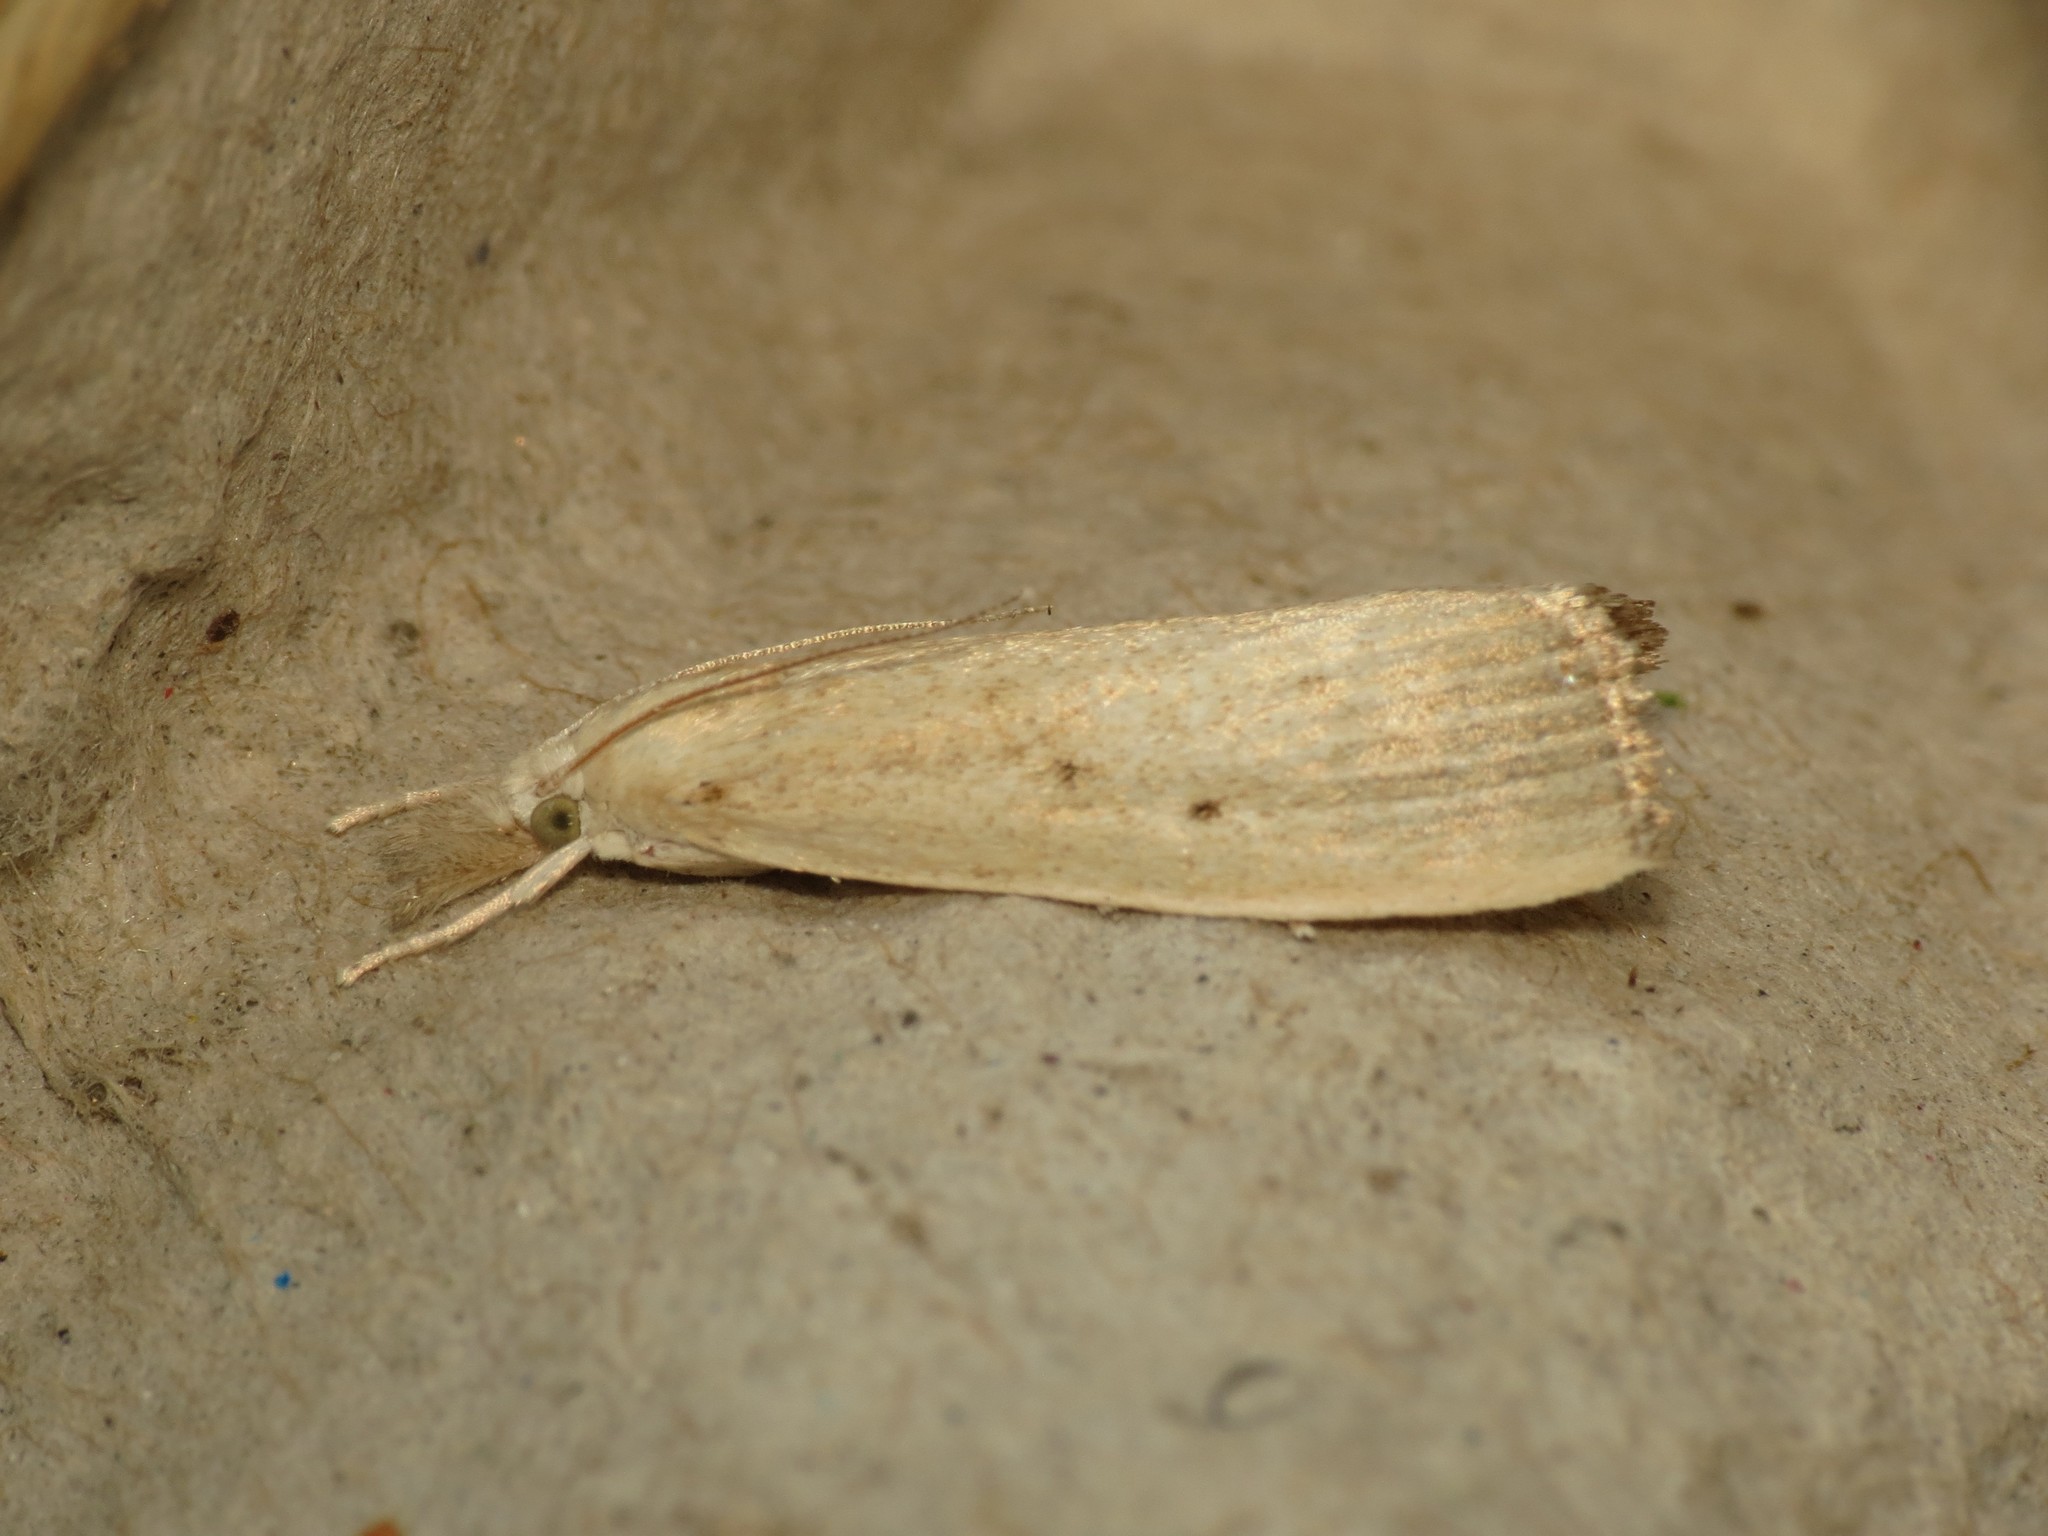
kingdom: Animalia
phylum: Arthropoda
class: Insecta
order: Lepidoptera
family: Crambidae
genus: Calamotropha
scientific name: Calamotropha paludella
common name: Bulrush veneer
